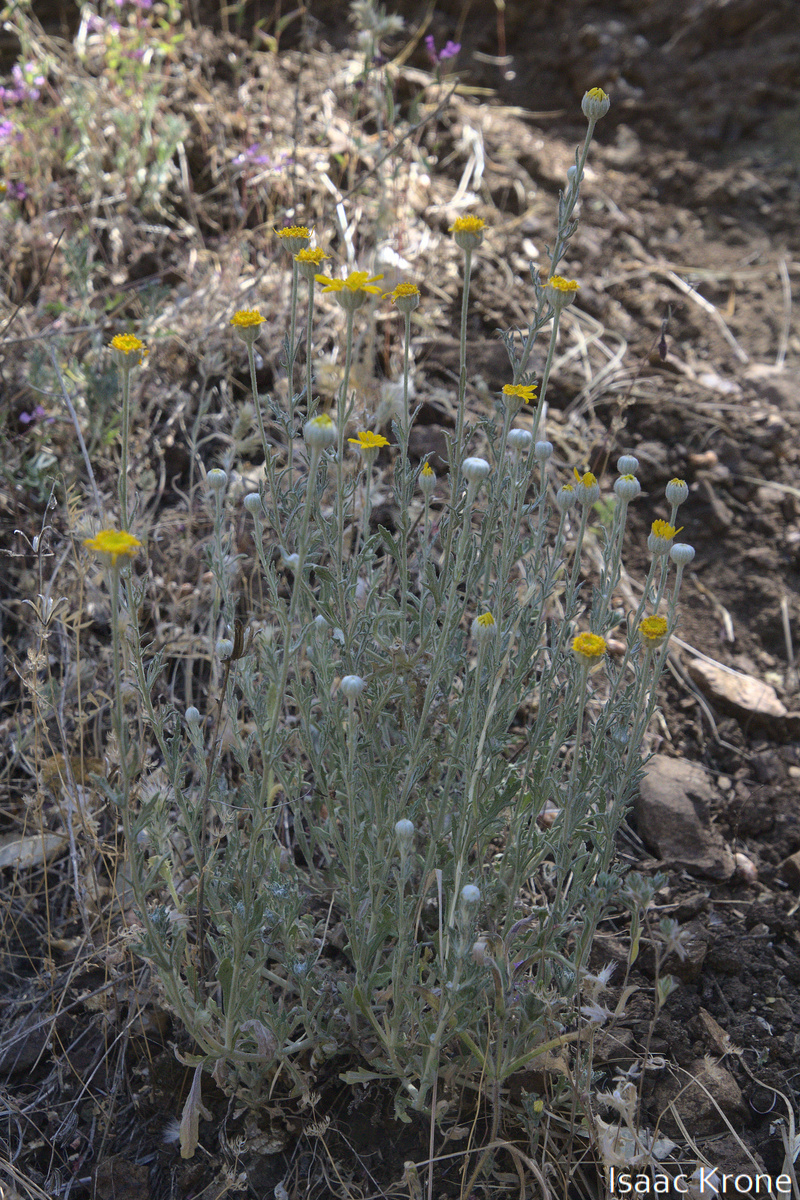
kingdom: Plantae
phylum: Tracheophyta
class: Magnoliopsida
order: Asterales
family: Asteraceae
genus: Eriophyllum
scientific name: Eriophyllum lanatum
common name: Common woolly-sunflower
